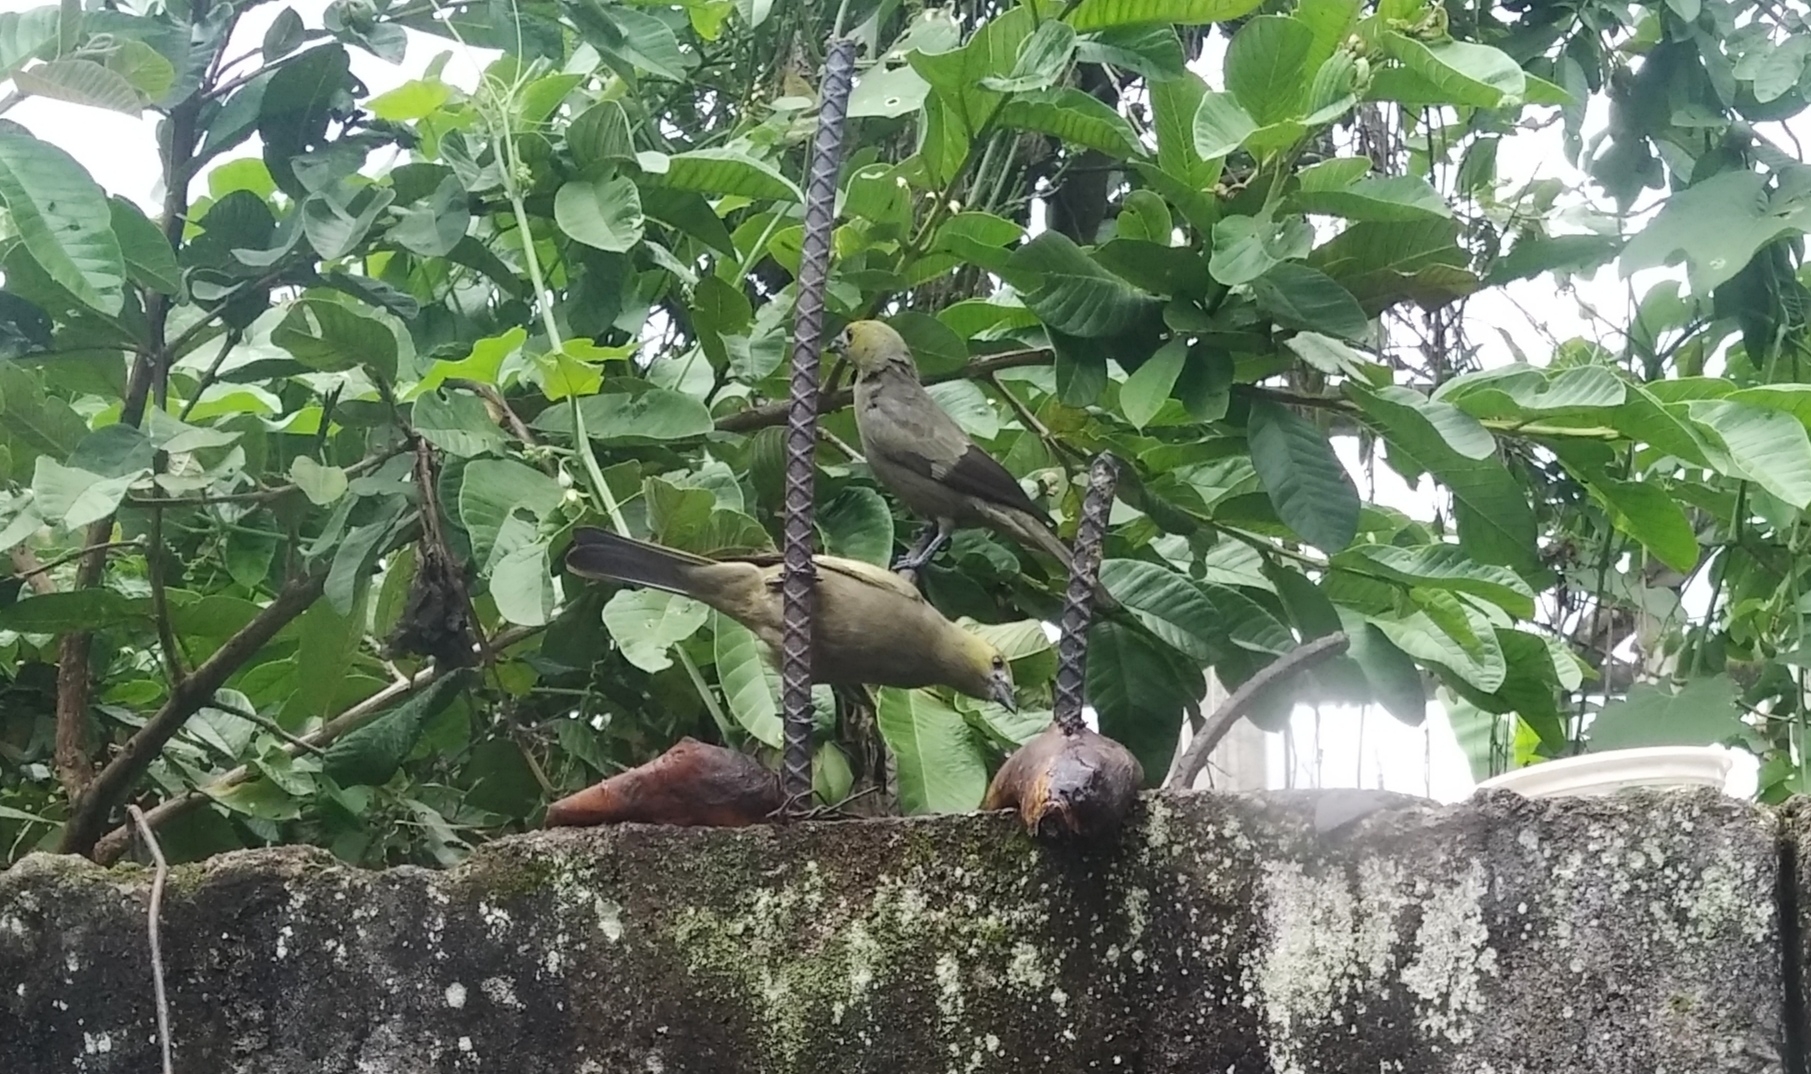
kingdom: Animalia
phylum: Chordata
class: Aves
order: Passeriformes
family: Thraupidae
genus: Thraupis
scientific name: Thraupis palmarum
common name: Palm tanager
